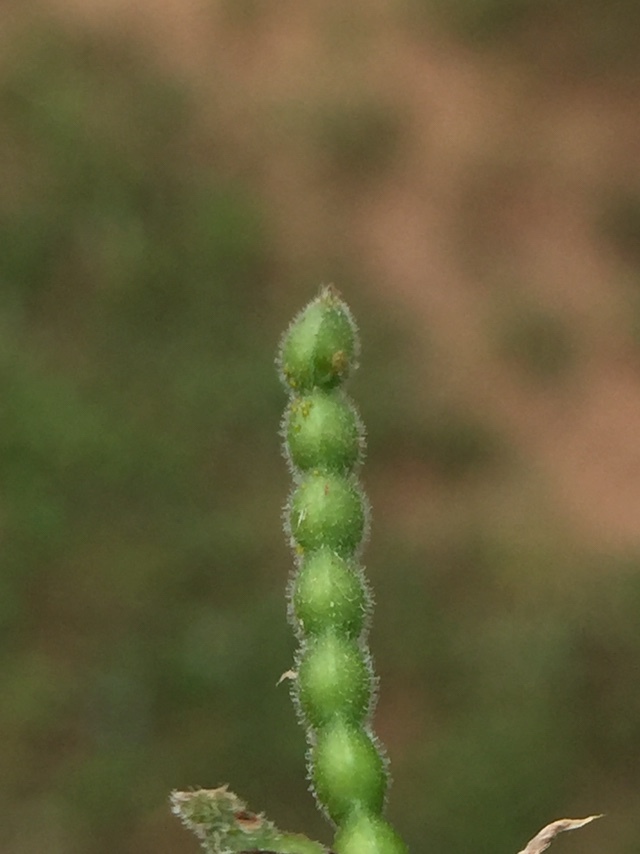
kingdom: Plantae
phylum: Tracheophyta
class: Magnoliopsida
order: Fabales
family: Fabaceae
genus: Alysicarpus
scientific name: Alysicarpus monilifer
